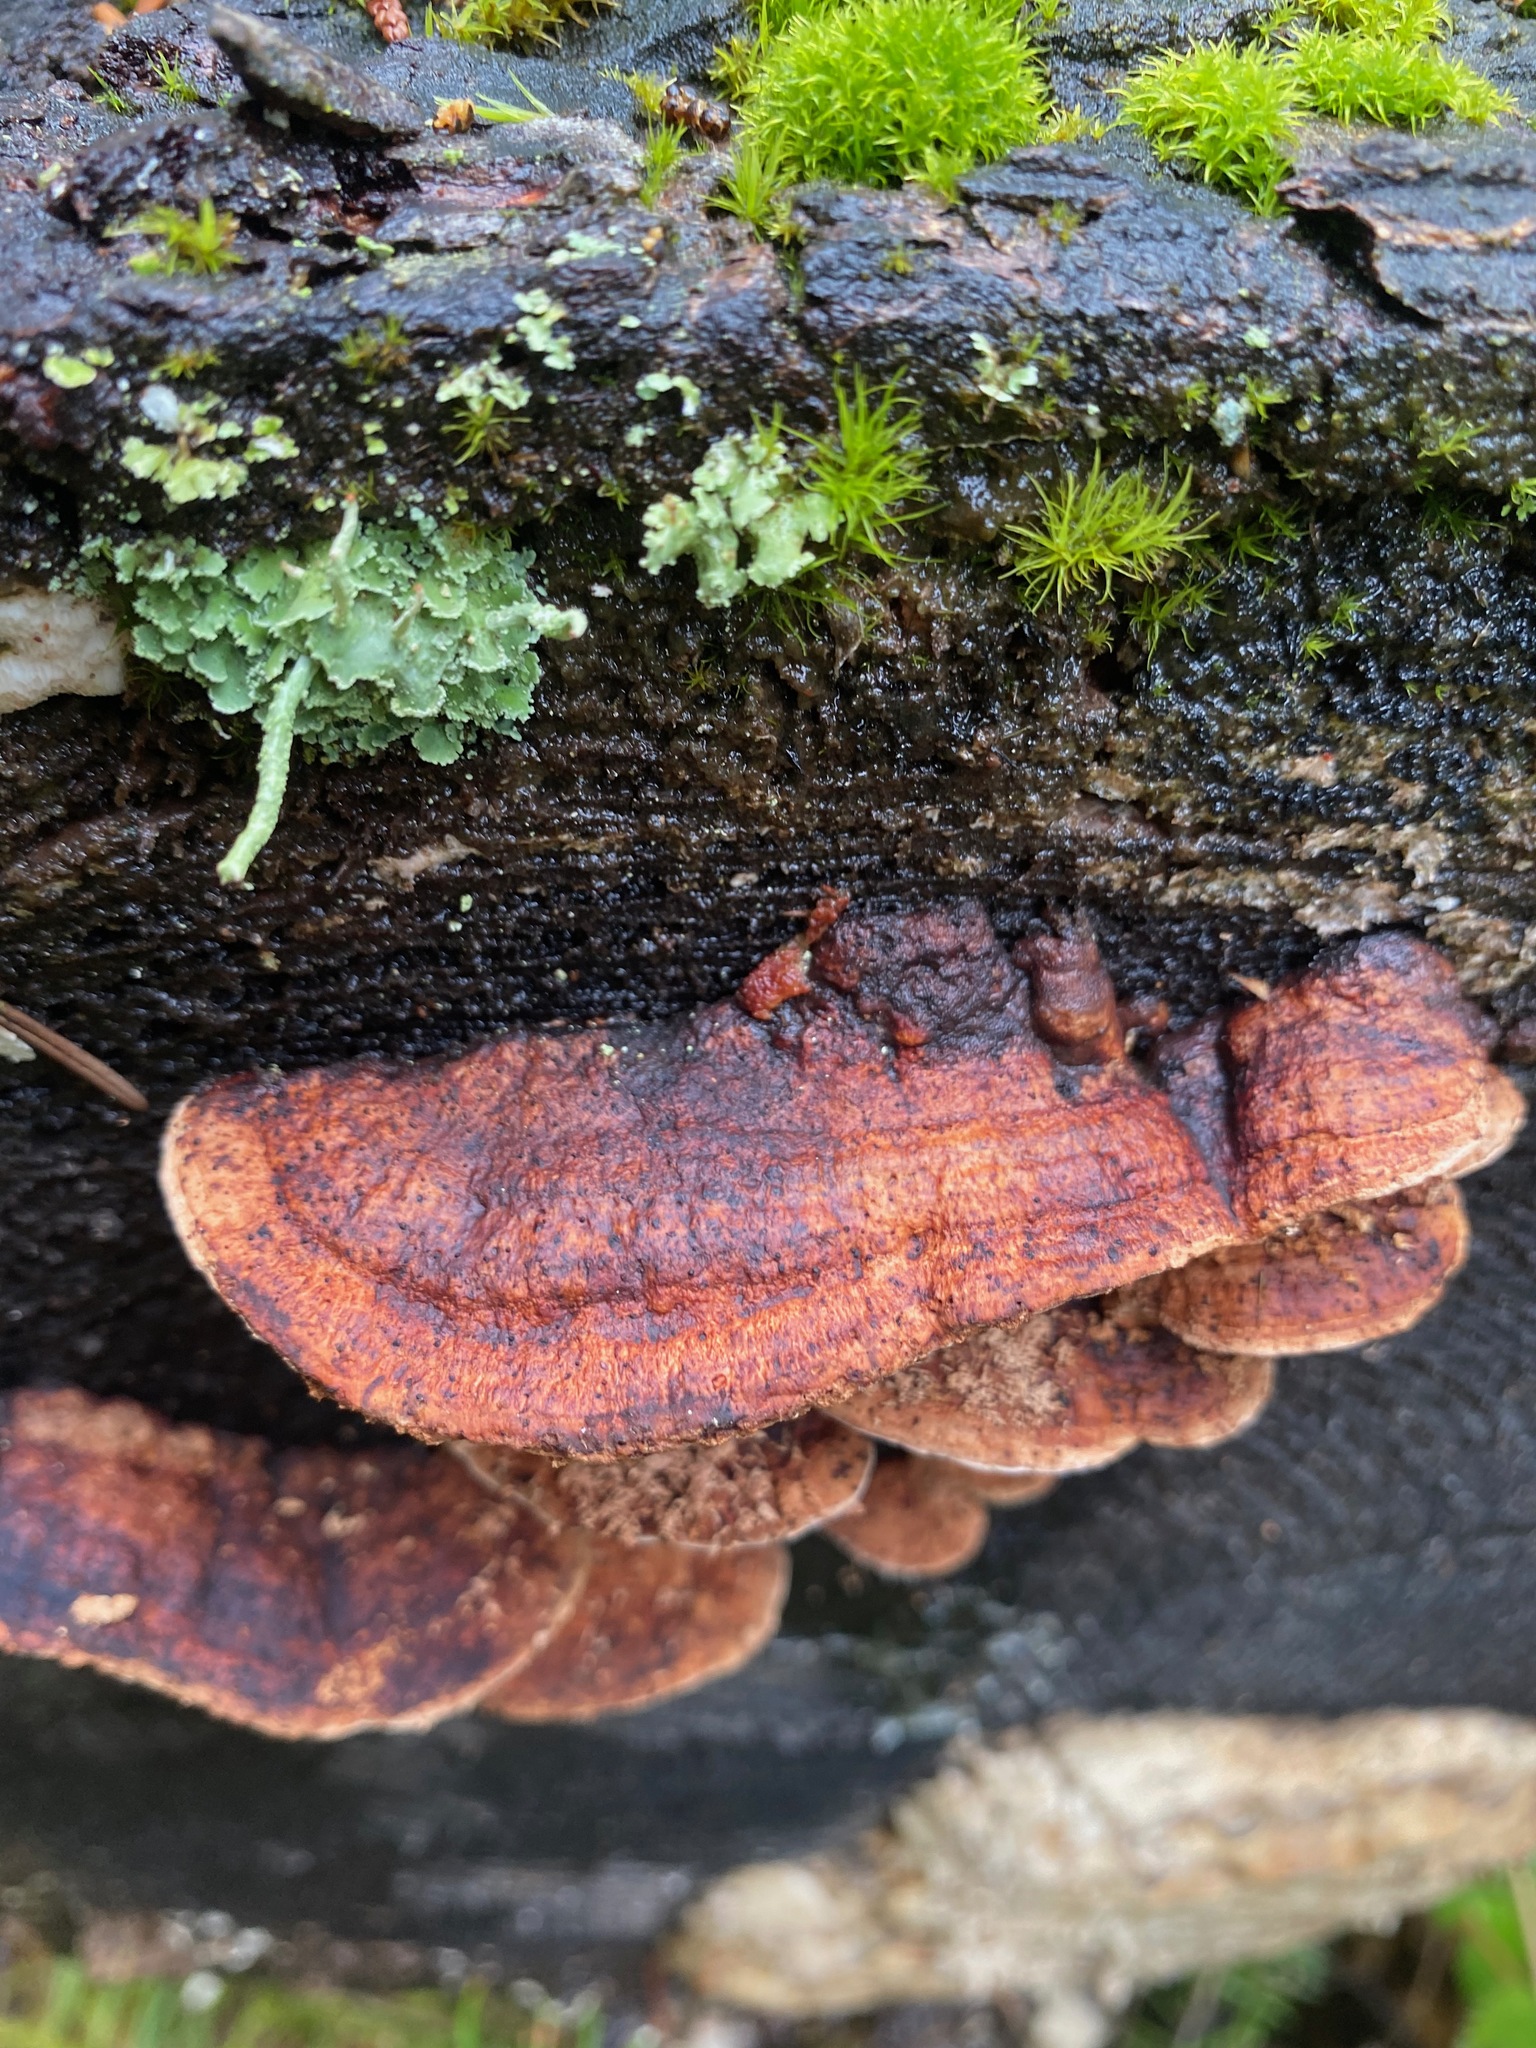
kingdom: Fungi
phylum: Basidiomycota
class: Agaricomycetes
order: Polyporales
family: Fomitopsidaceae
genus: Rhodofomes
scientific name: Rhodofomes cajanderi
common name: Rosy conk
